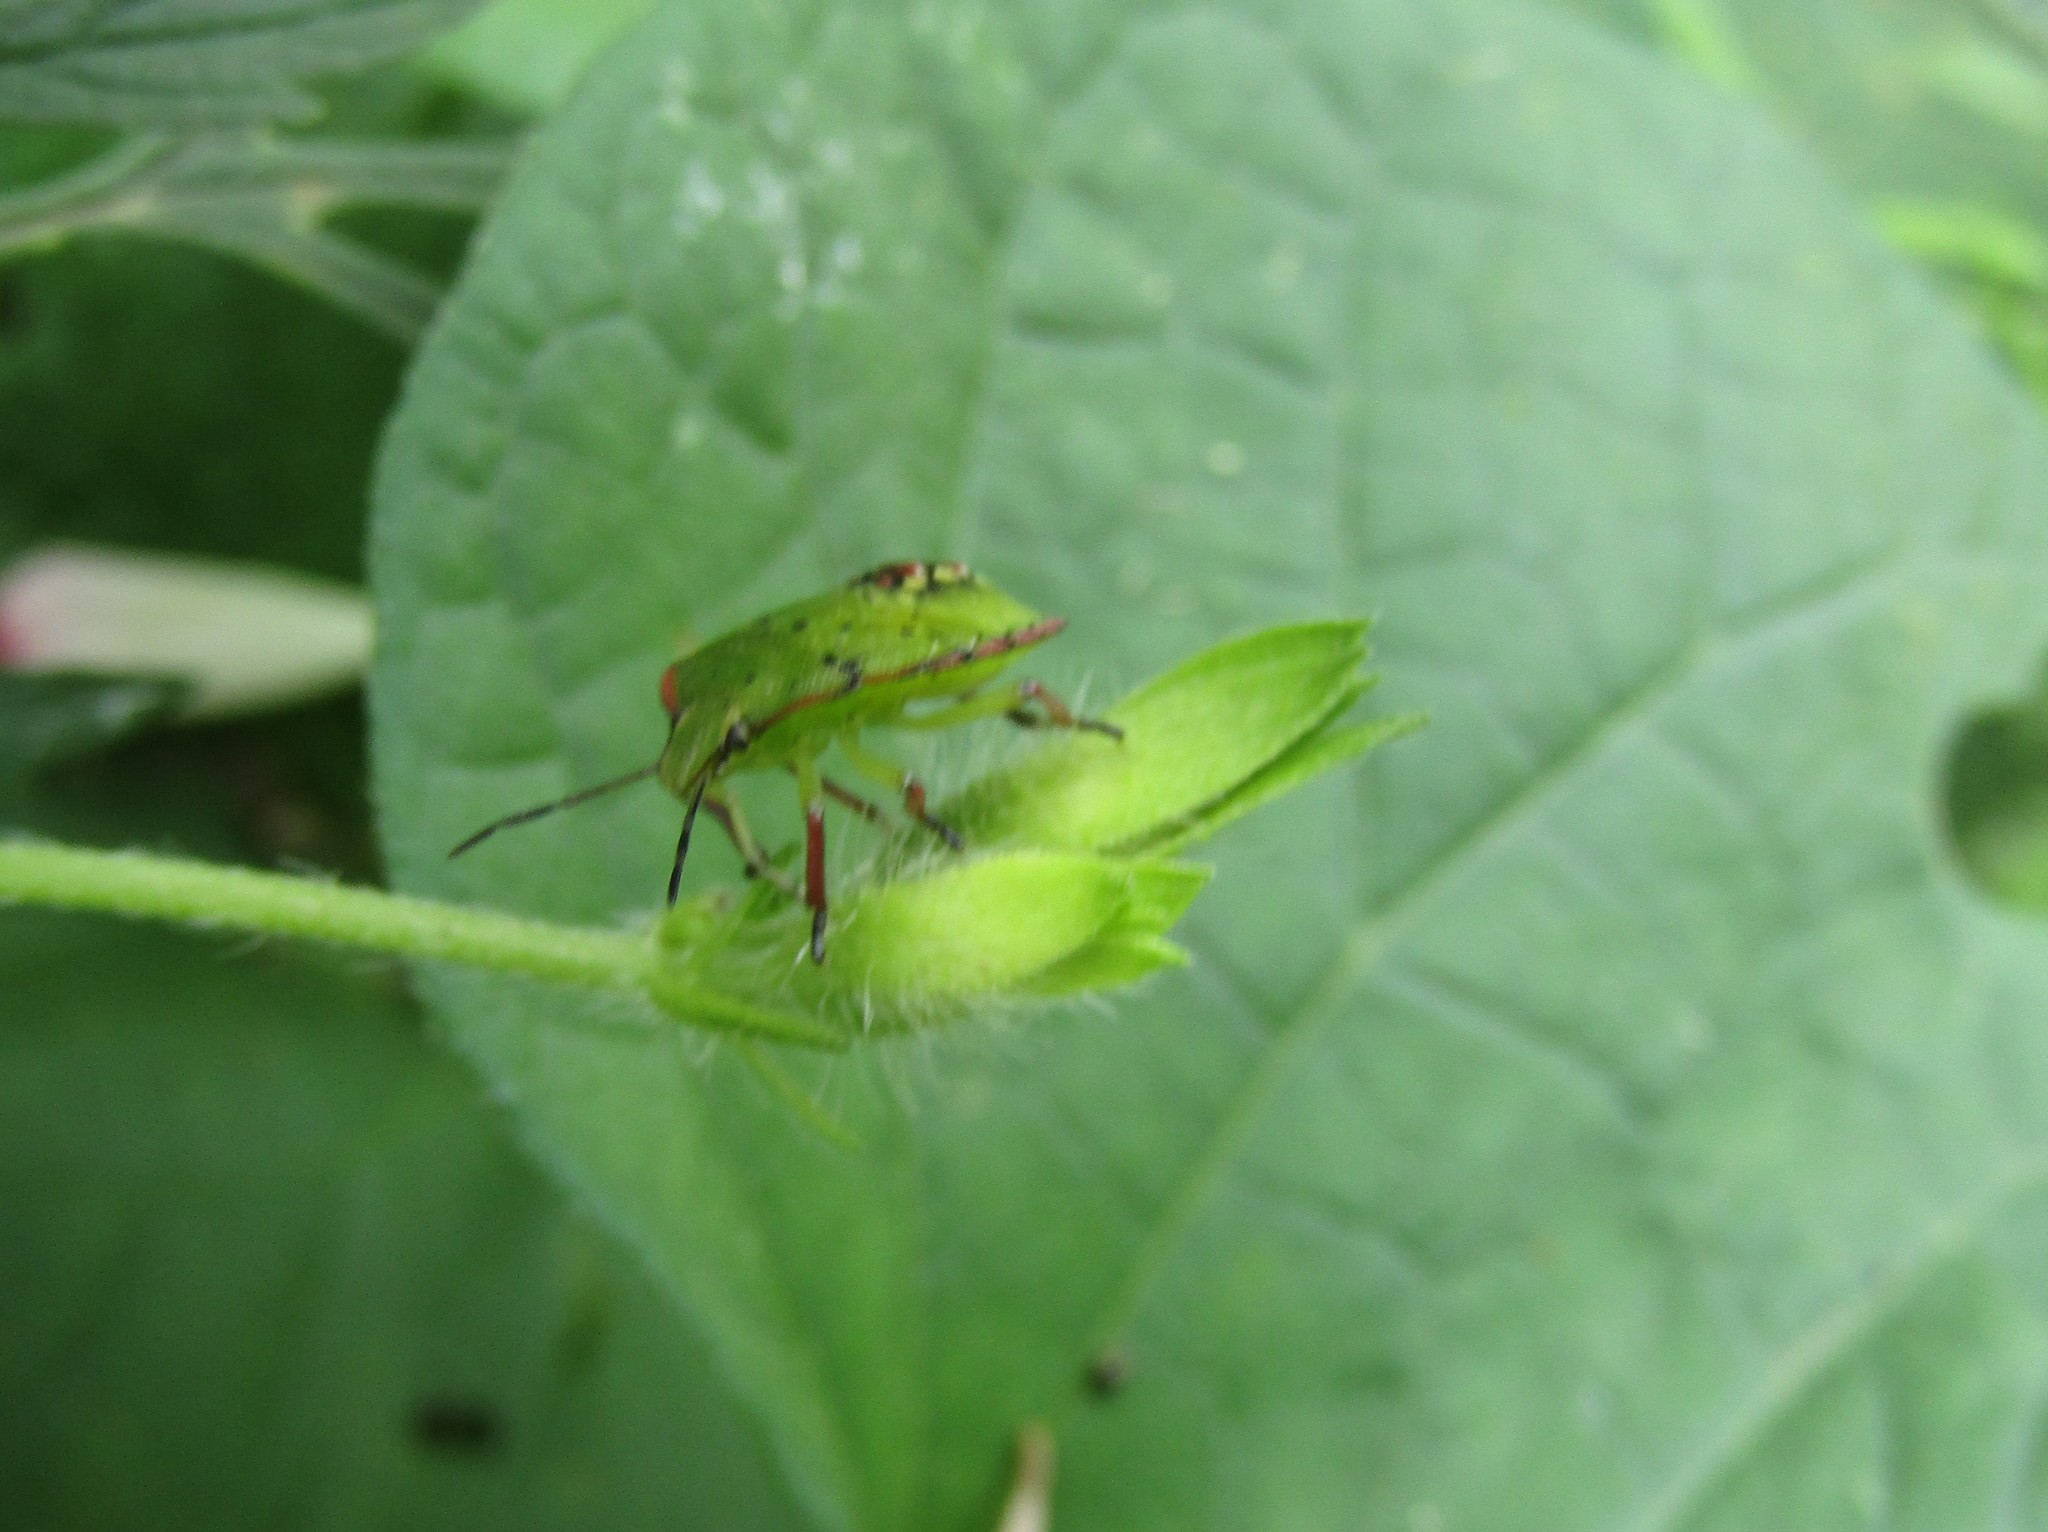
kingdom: Animalia
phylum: Arthropoda
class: Insecta
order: Hemiptera
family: Pentatomidae
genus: Nezara
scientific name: Nezara viridula
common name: Southern green stink bug
